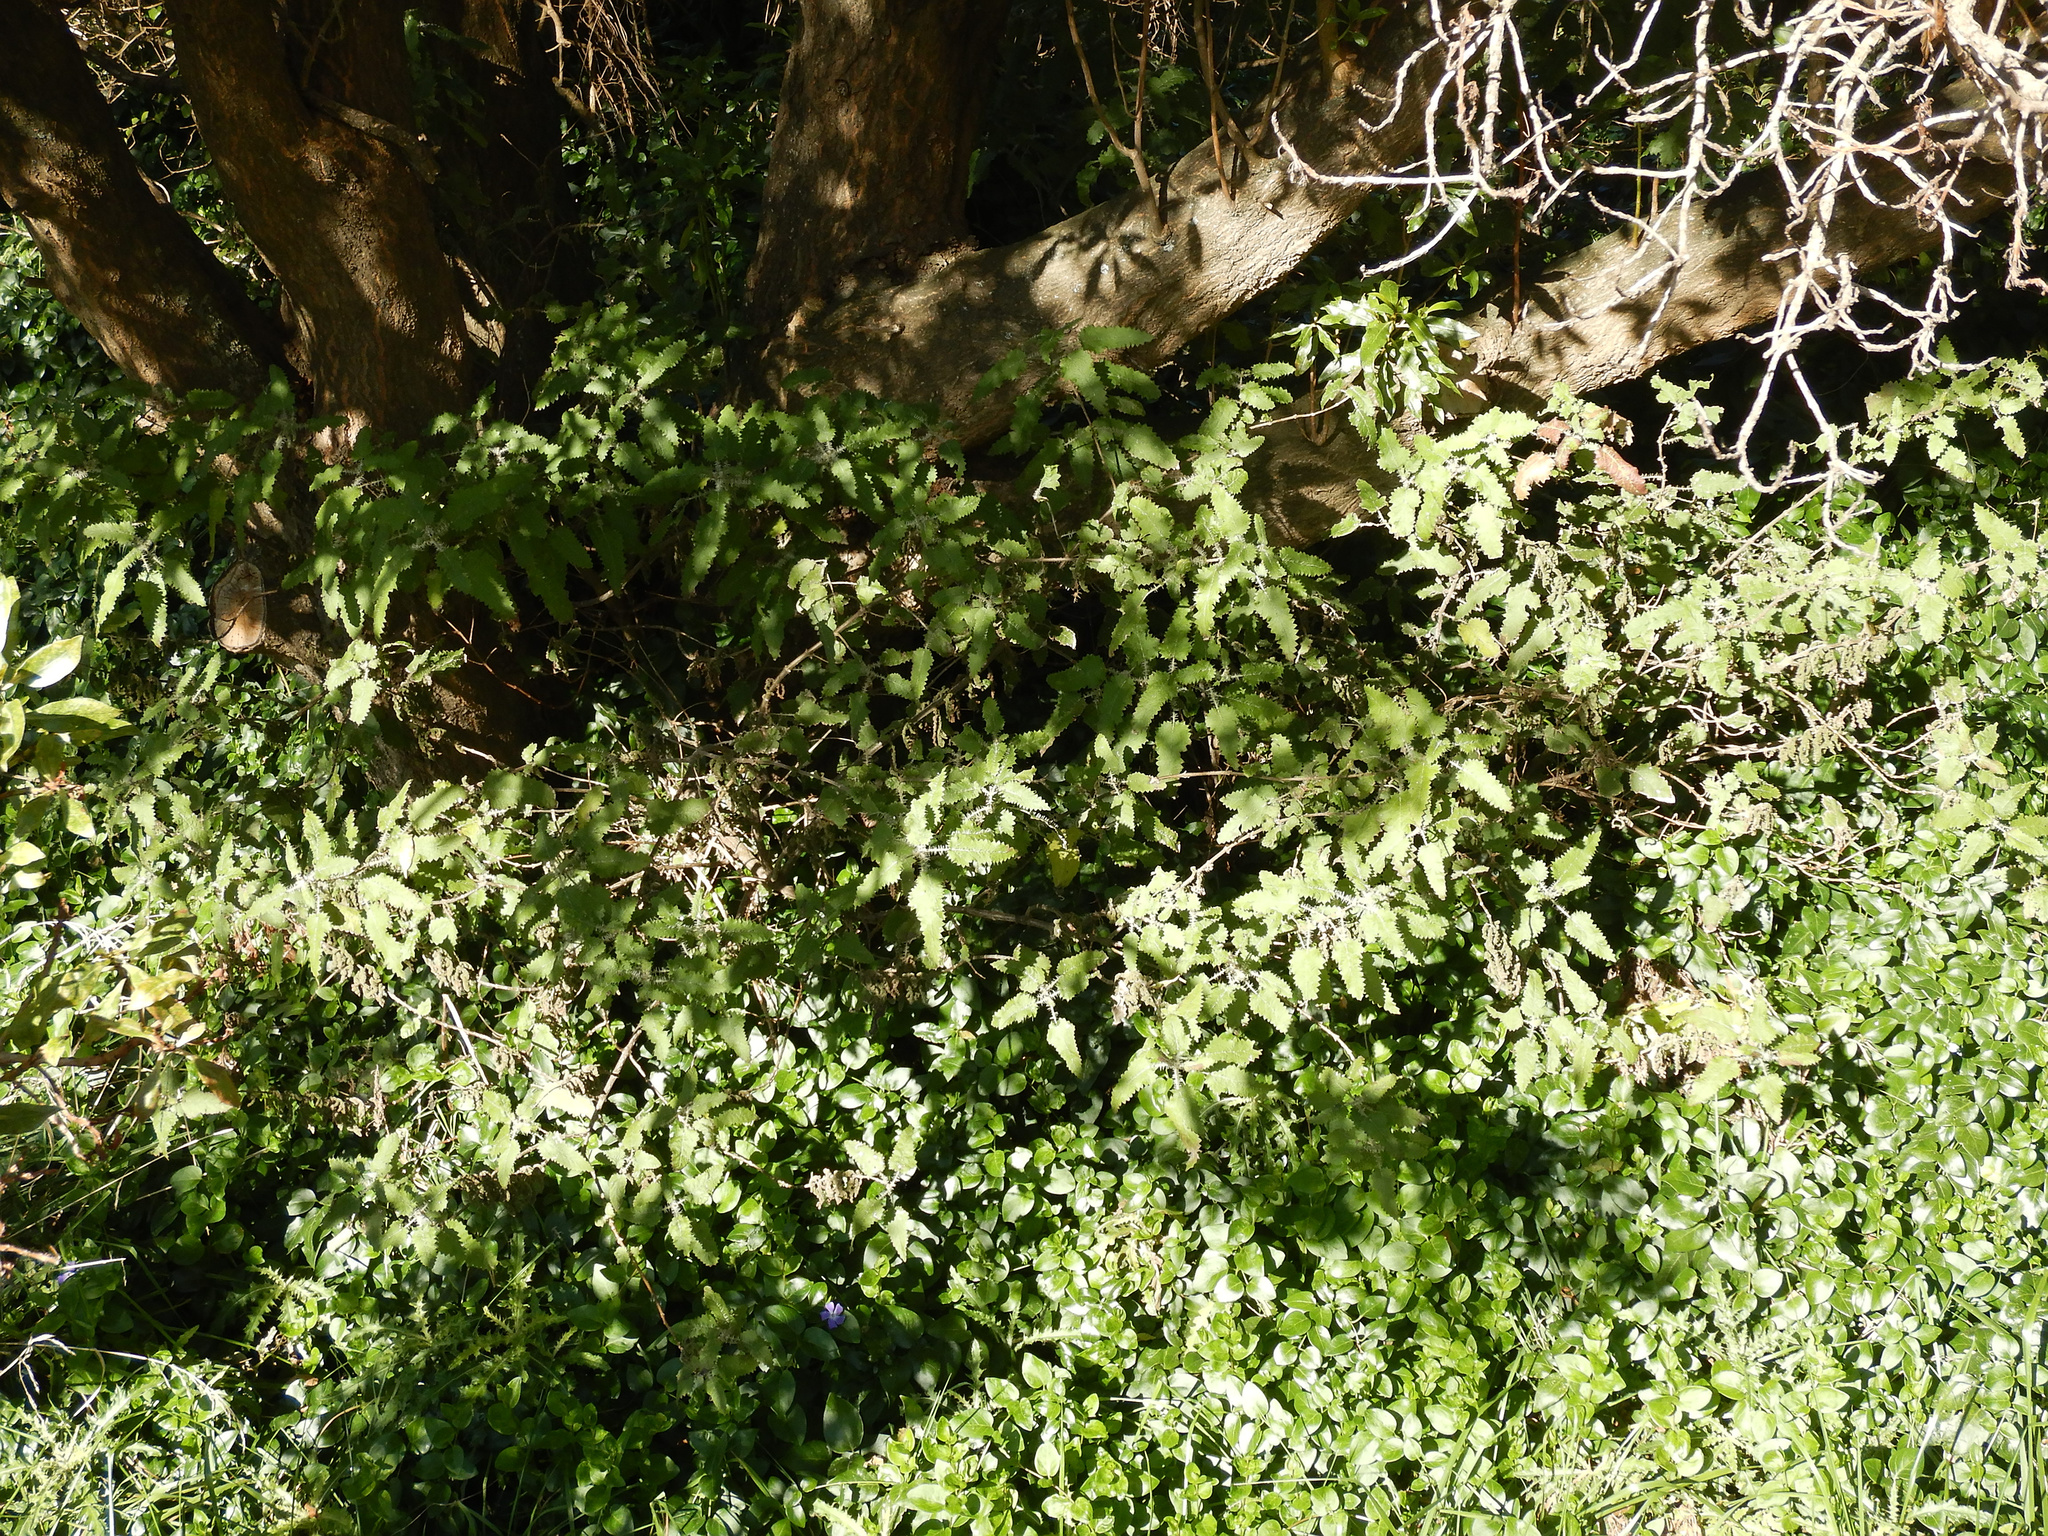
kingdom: Plantae
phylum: Tracheophyta
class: Magnoliopsida
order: Rosales
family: Urticaceae
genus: Urtica
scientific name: Urtica ferox
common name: Tree nettle
